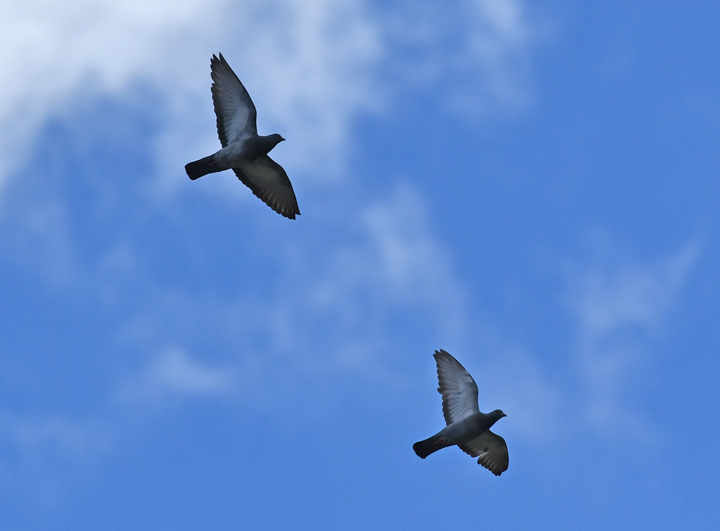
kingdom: Animalia
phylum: Chordata
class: Aves
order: Columbiformes
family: Columbidae
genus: Columba
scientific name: Columba livia
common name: Rock pigeon
